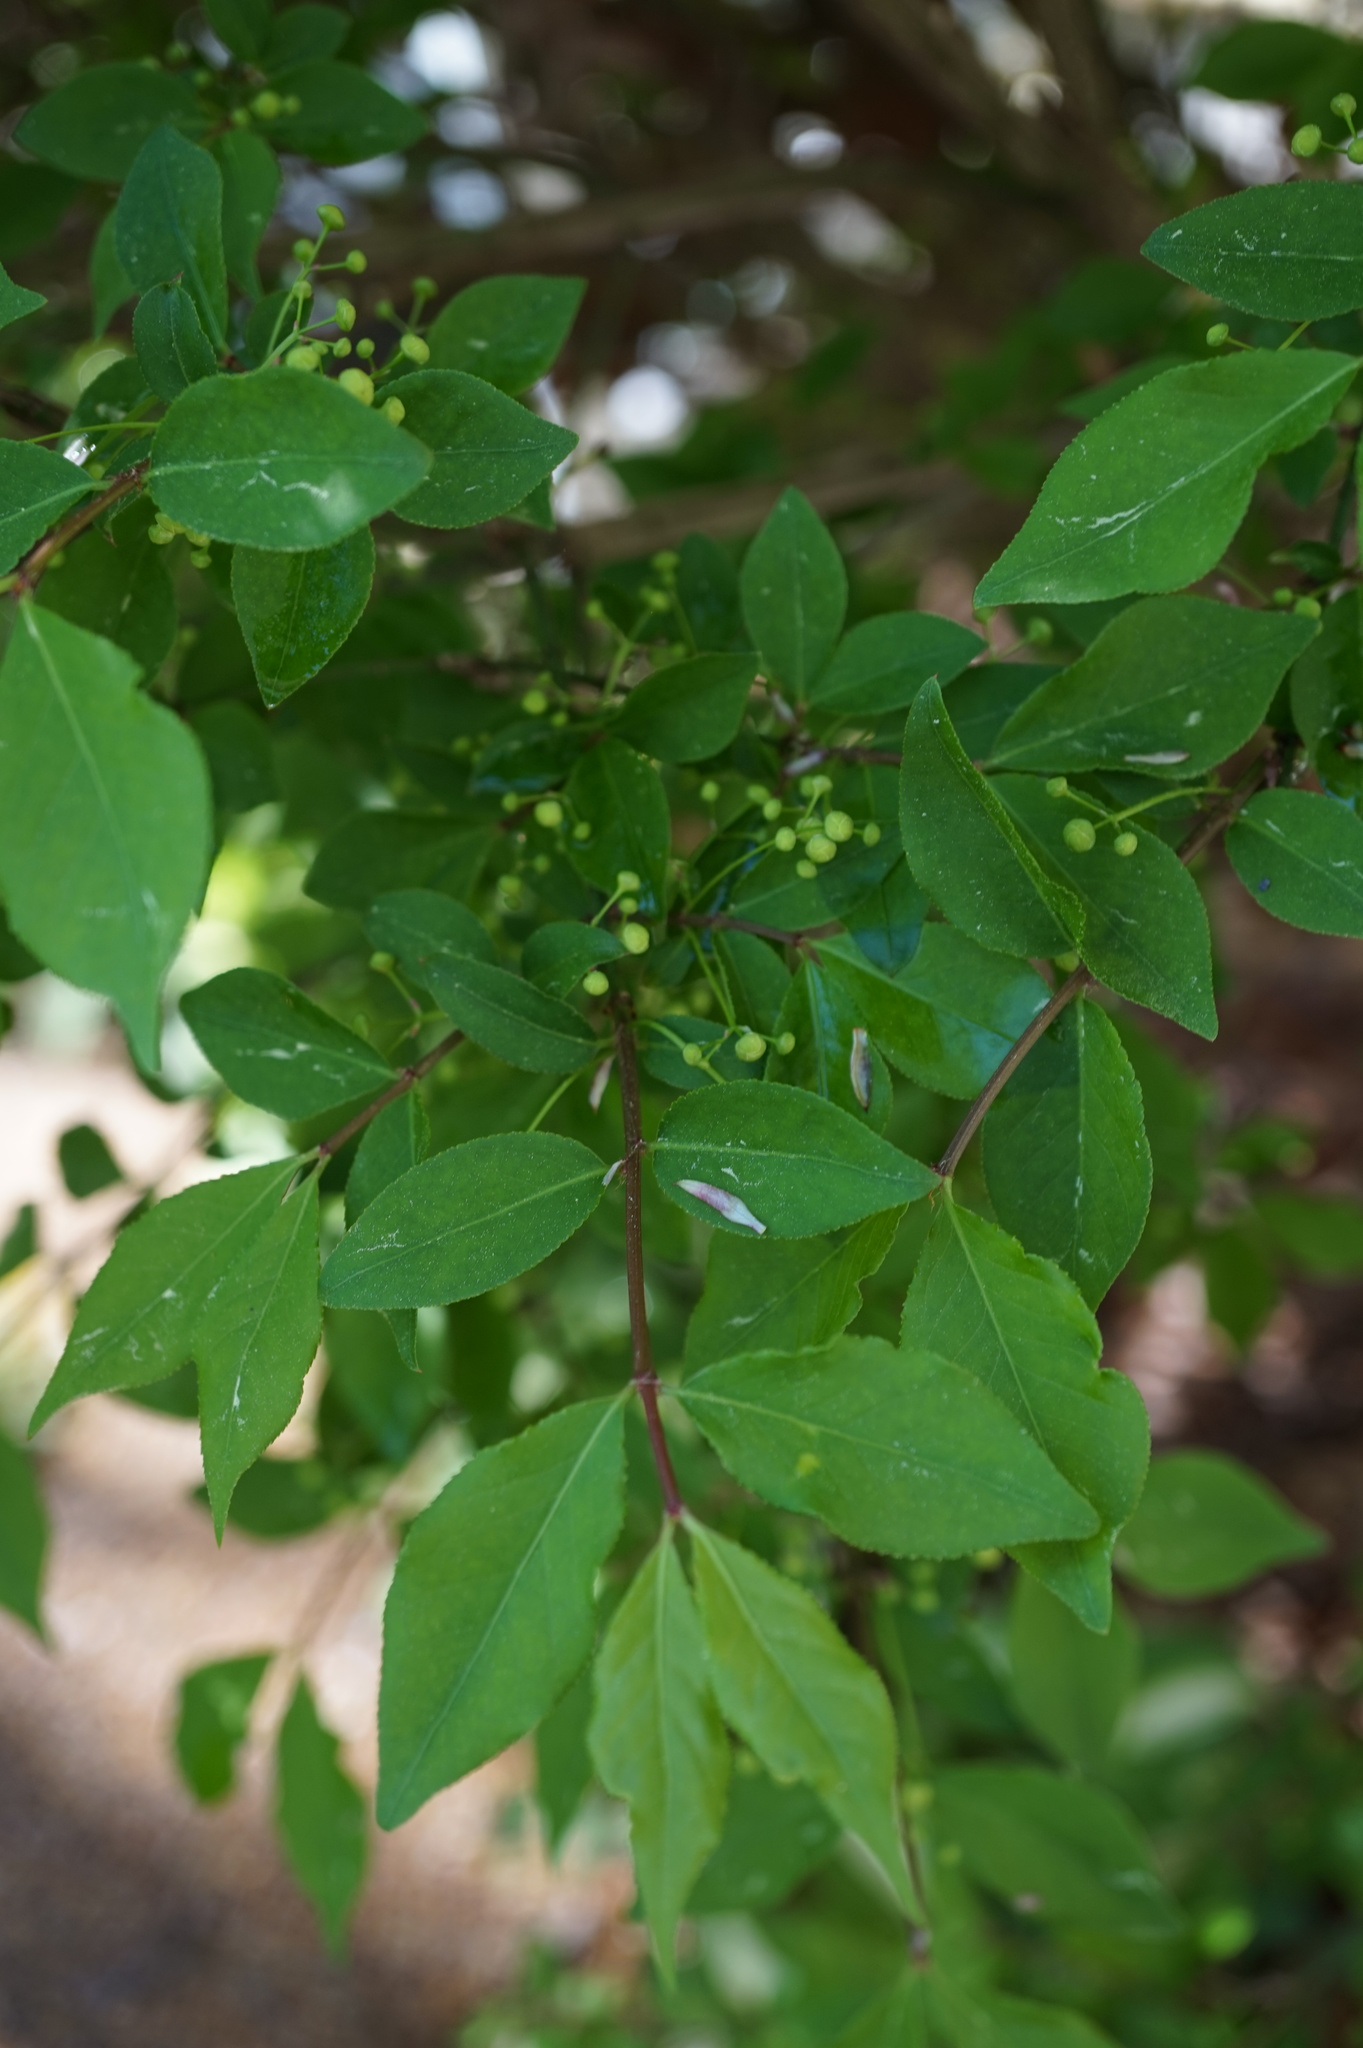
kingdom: Plantae
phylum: Tracheophyta
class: Magnoliopsida
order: Celastrales
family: Celastraceae
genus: Euonymus
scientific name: Euonymus alatus
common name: Winged euonymus
